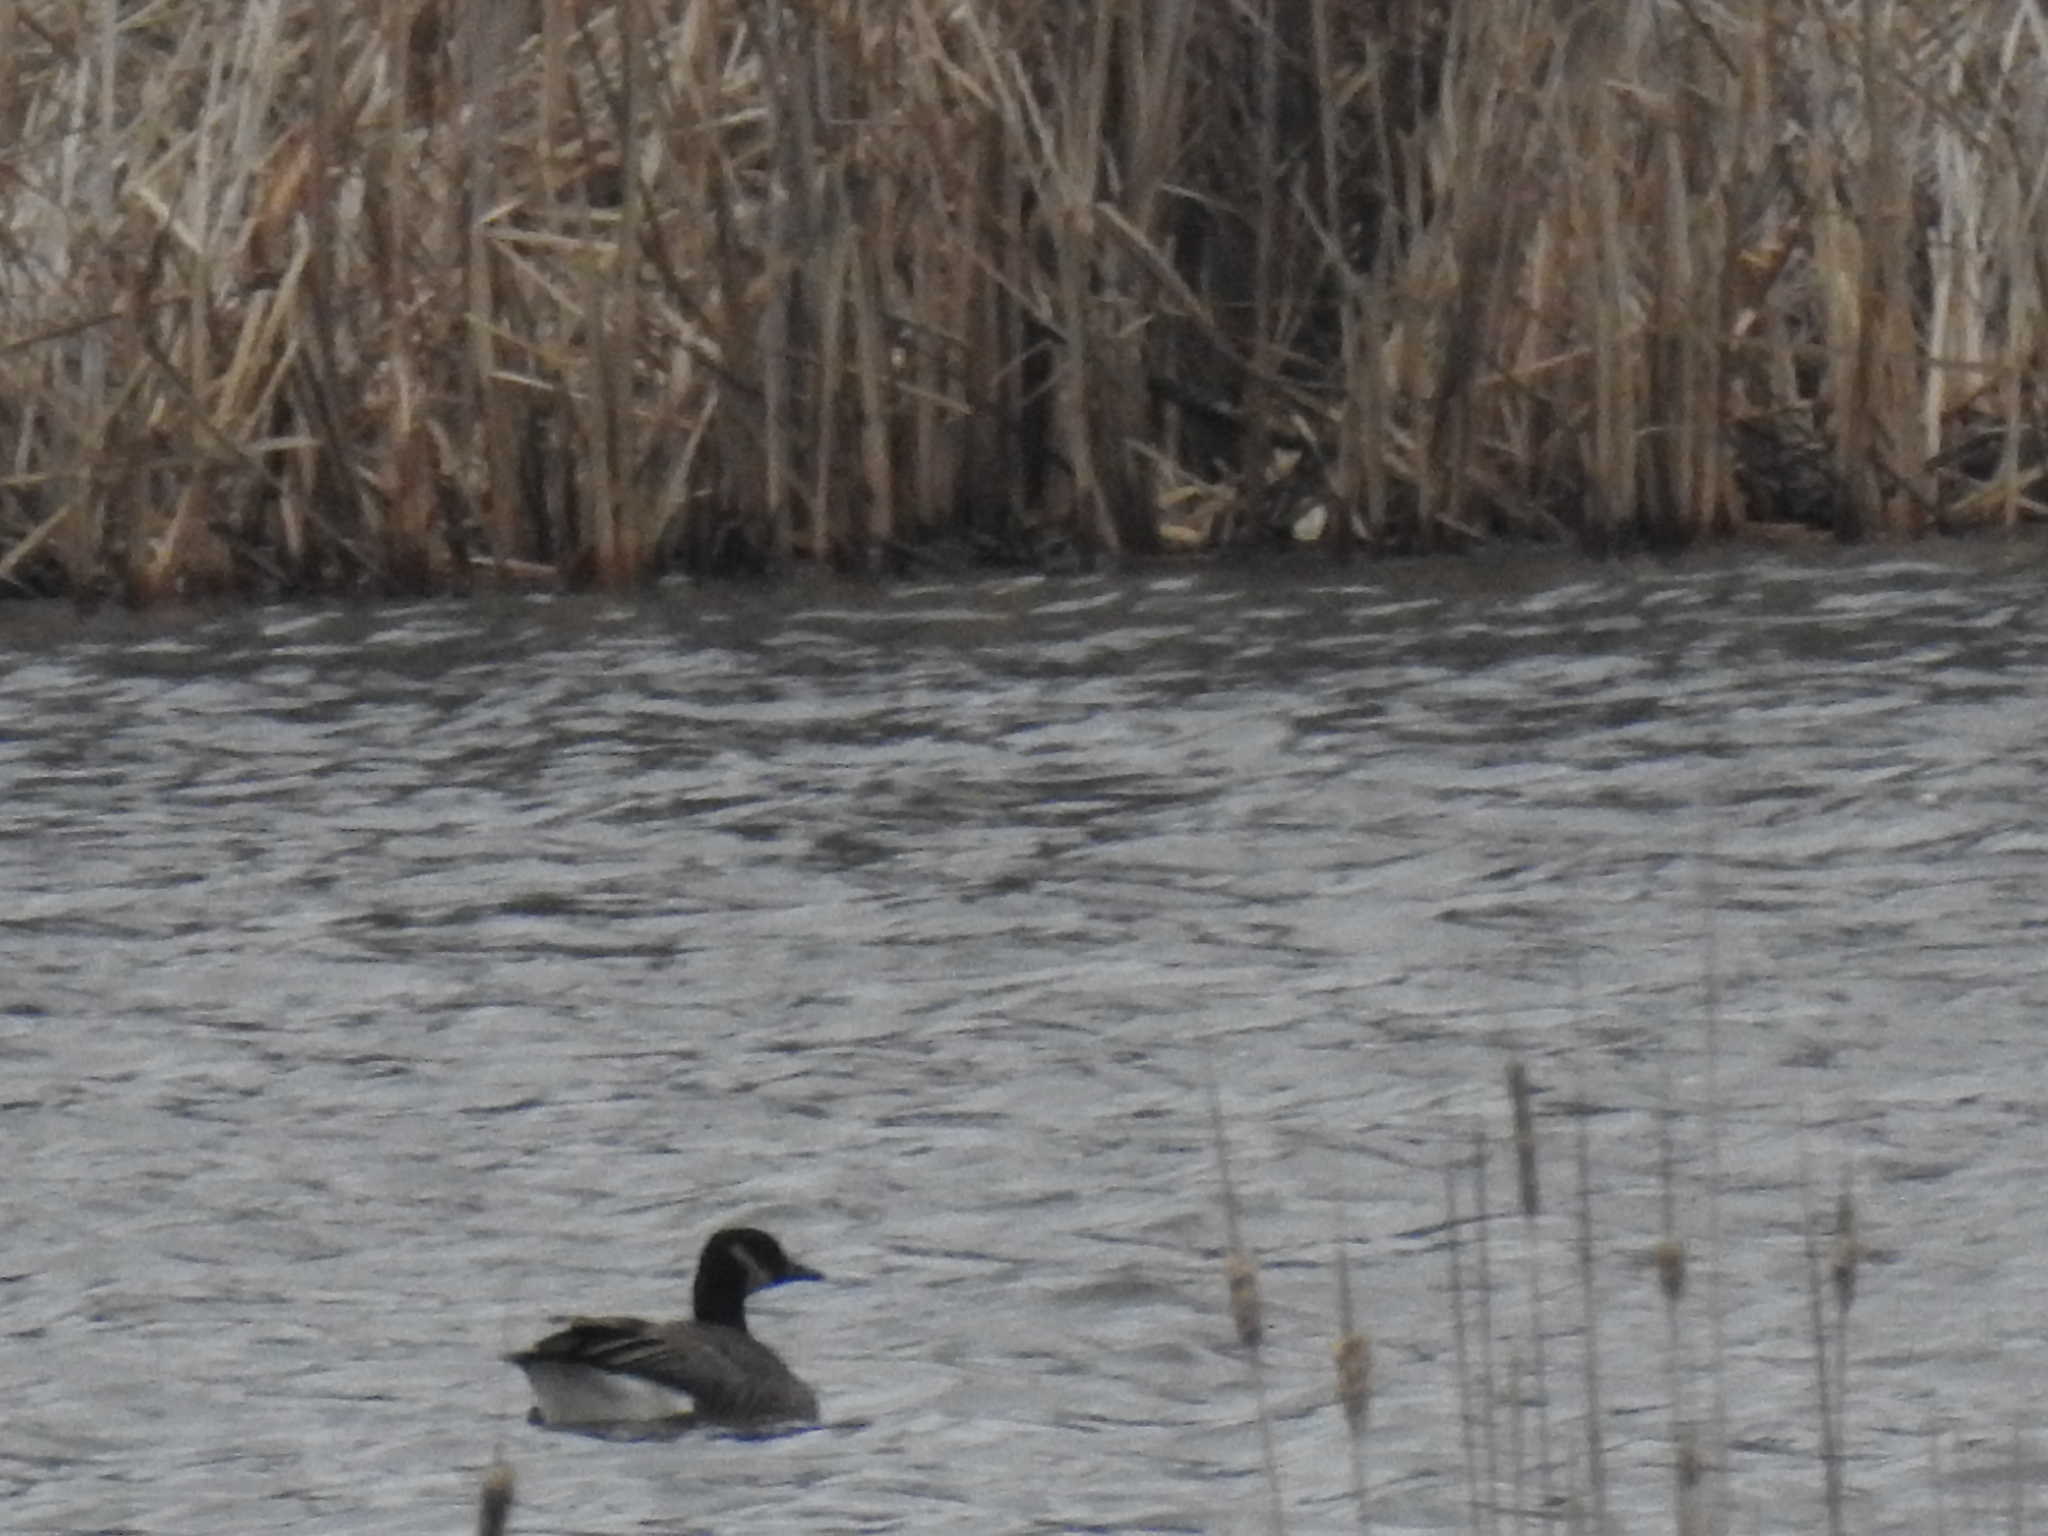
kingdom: Animalia
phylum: Chordata
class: Aves
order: Anseriformes
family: Anatidae
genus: Branta
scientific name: Branta canadensis
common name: Canada goose
